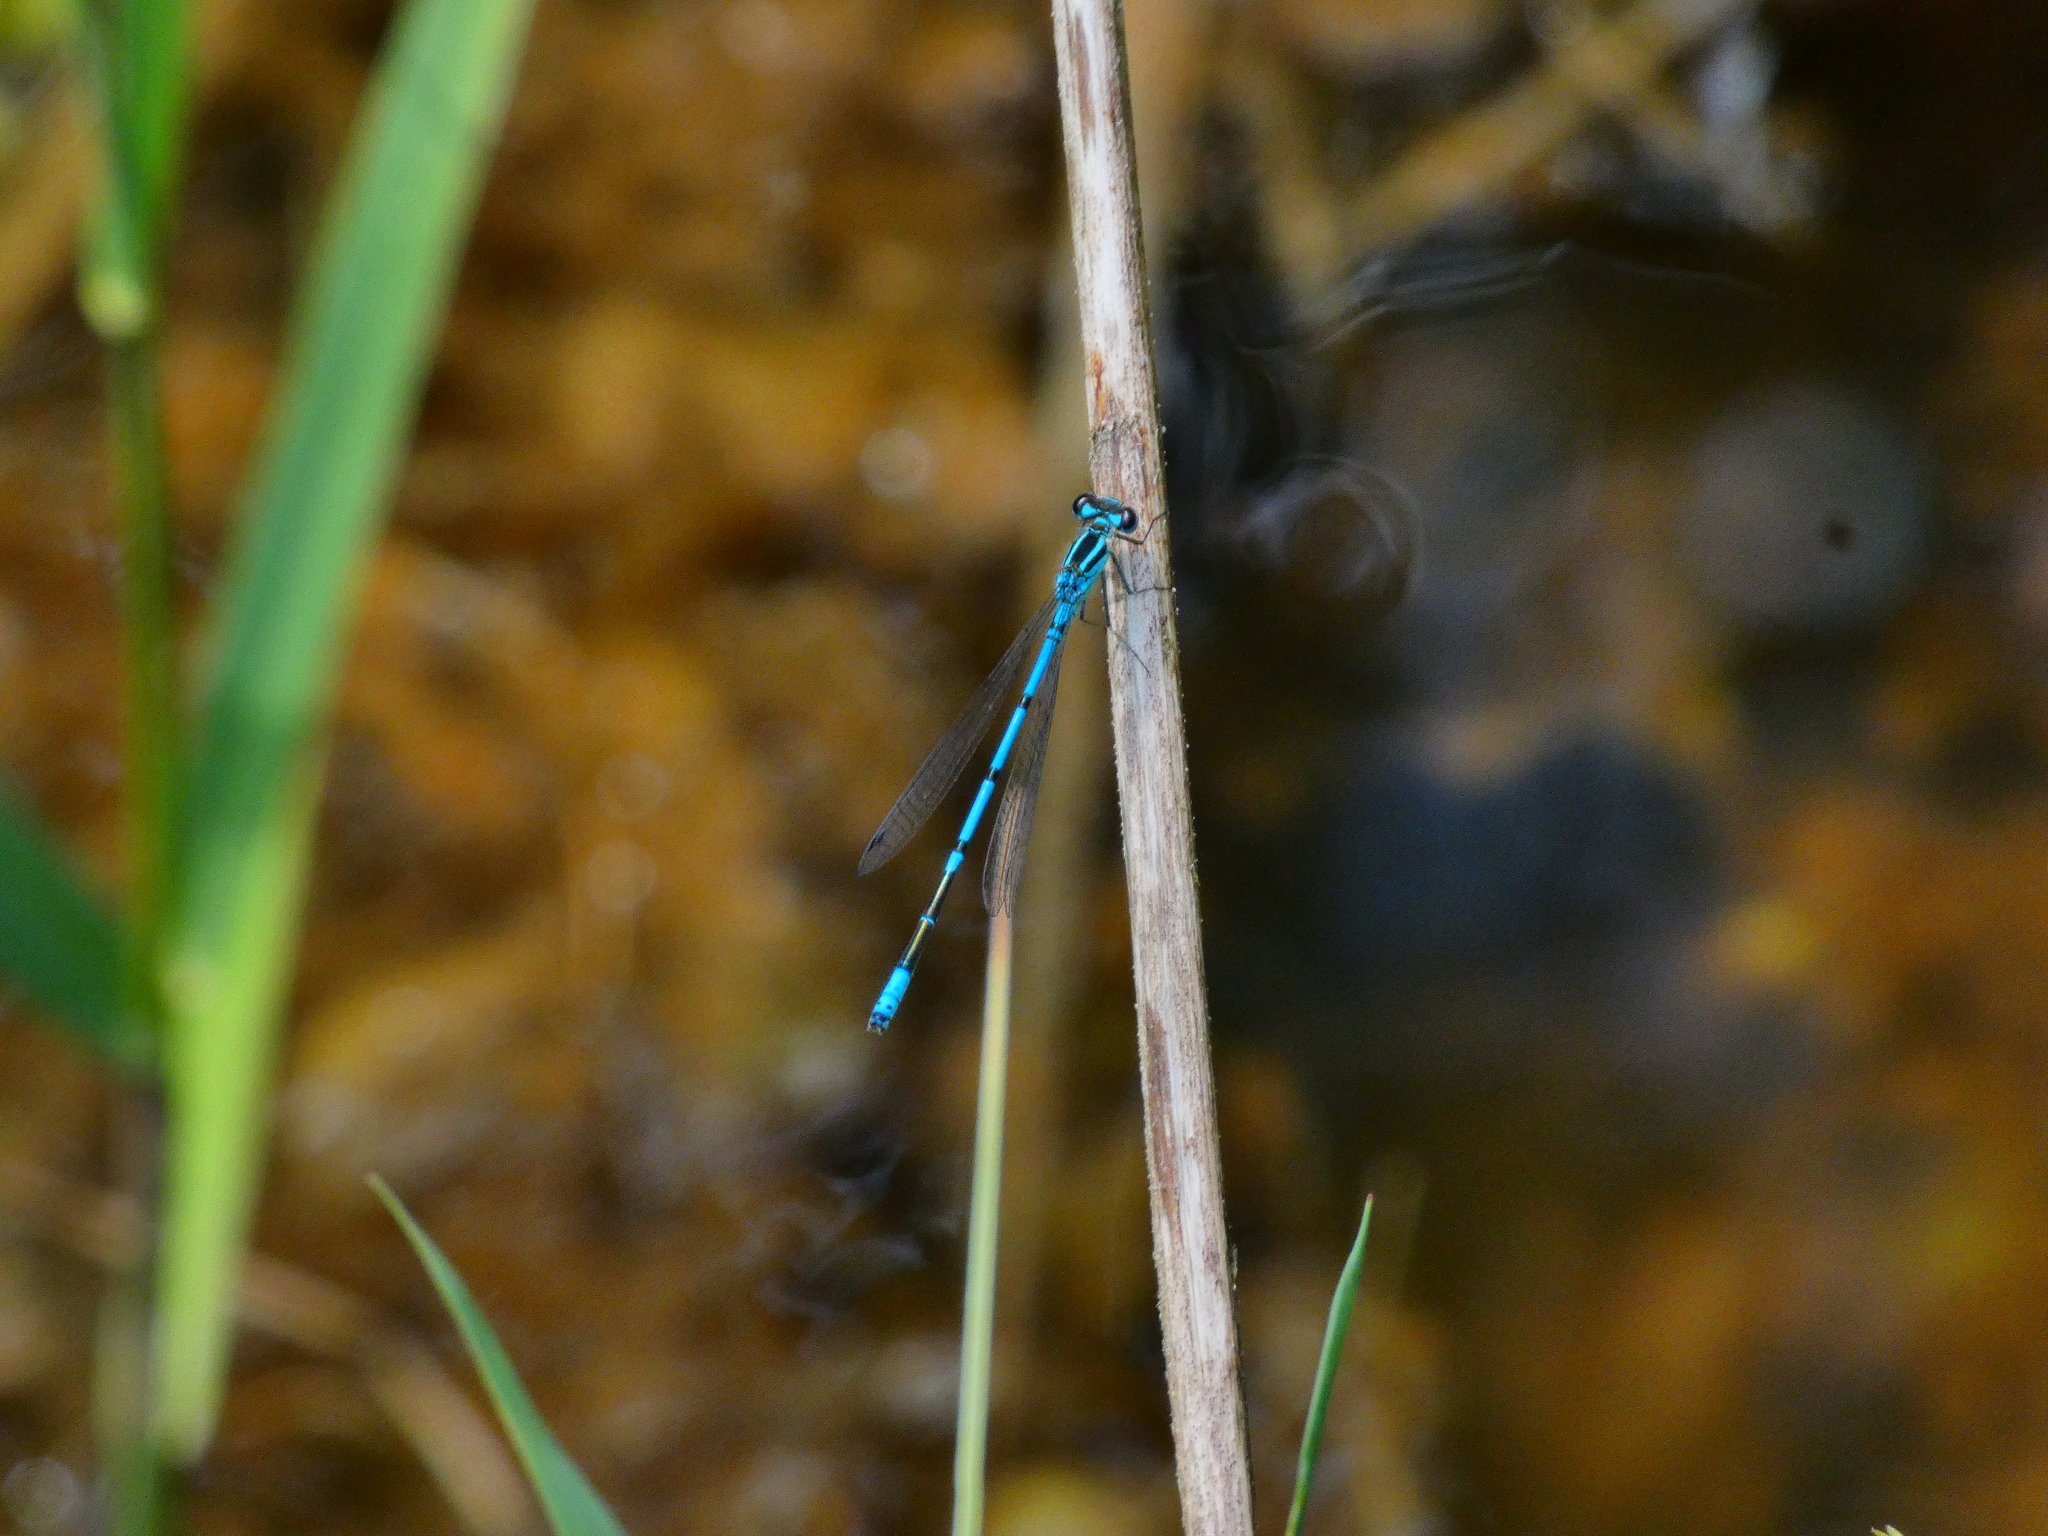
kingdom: Animalia
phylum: Arthropoda
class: Insecta
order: Odonata
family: Coenagrionidae
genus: Coenagrion
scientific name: Coenagrion puella
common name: Azure damselfly
